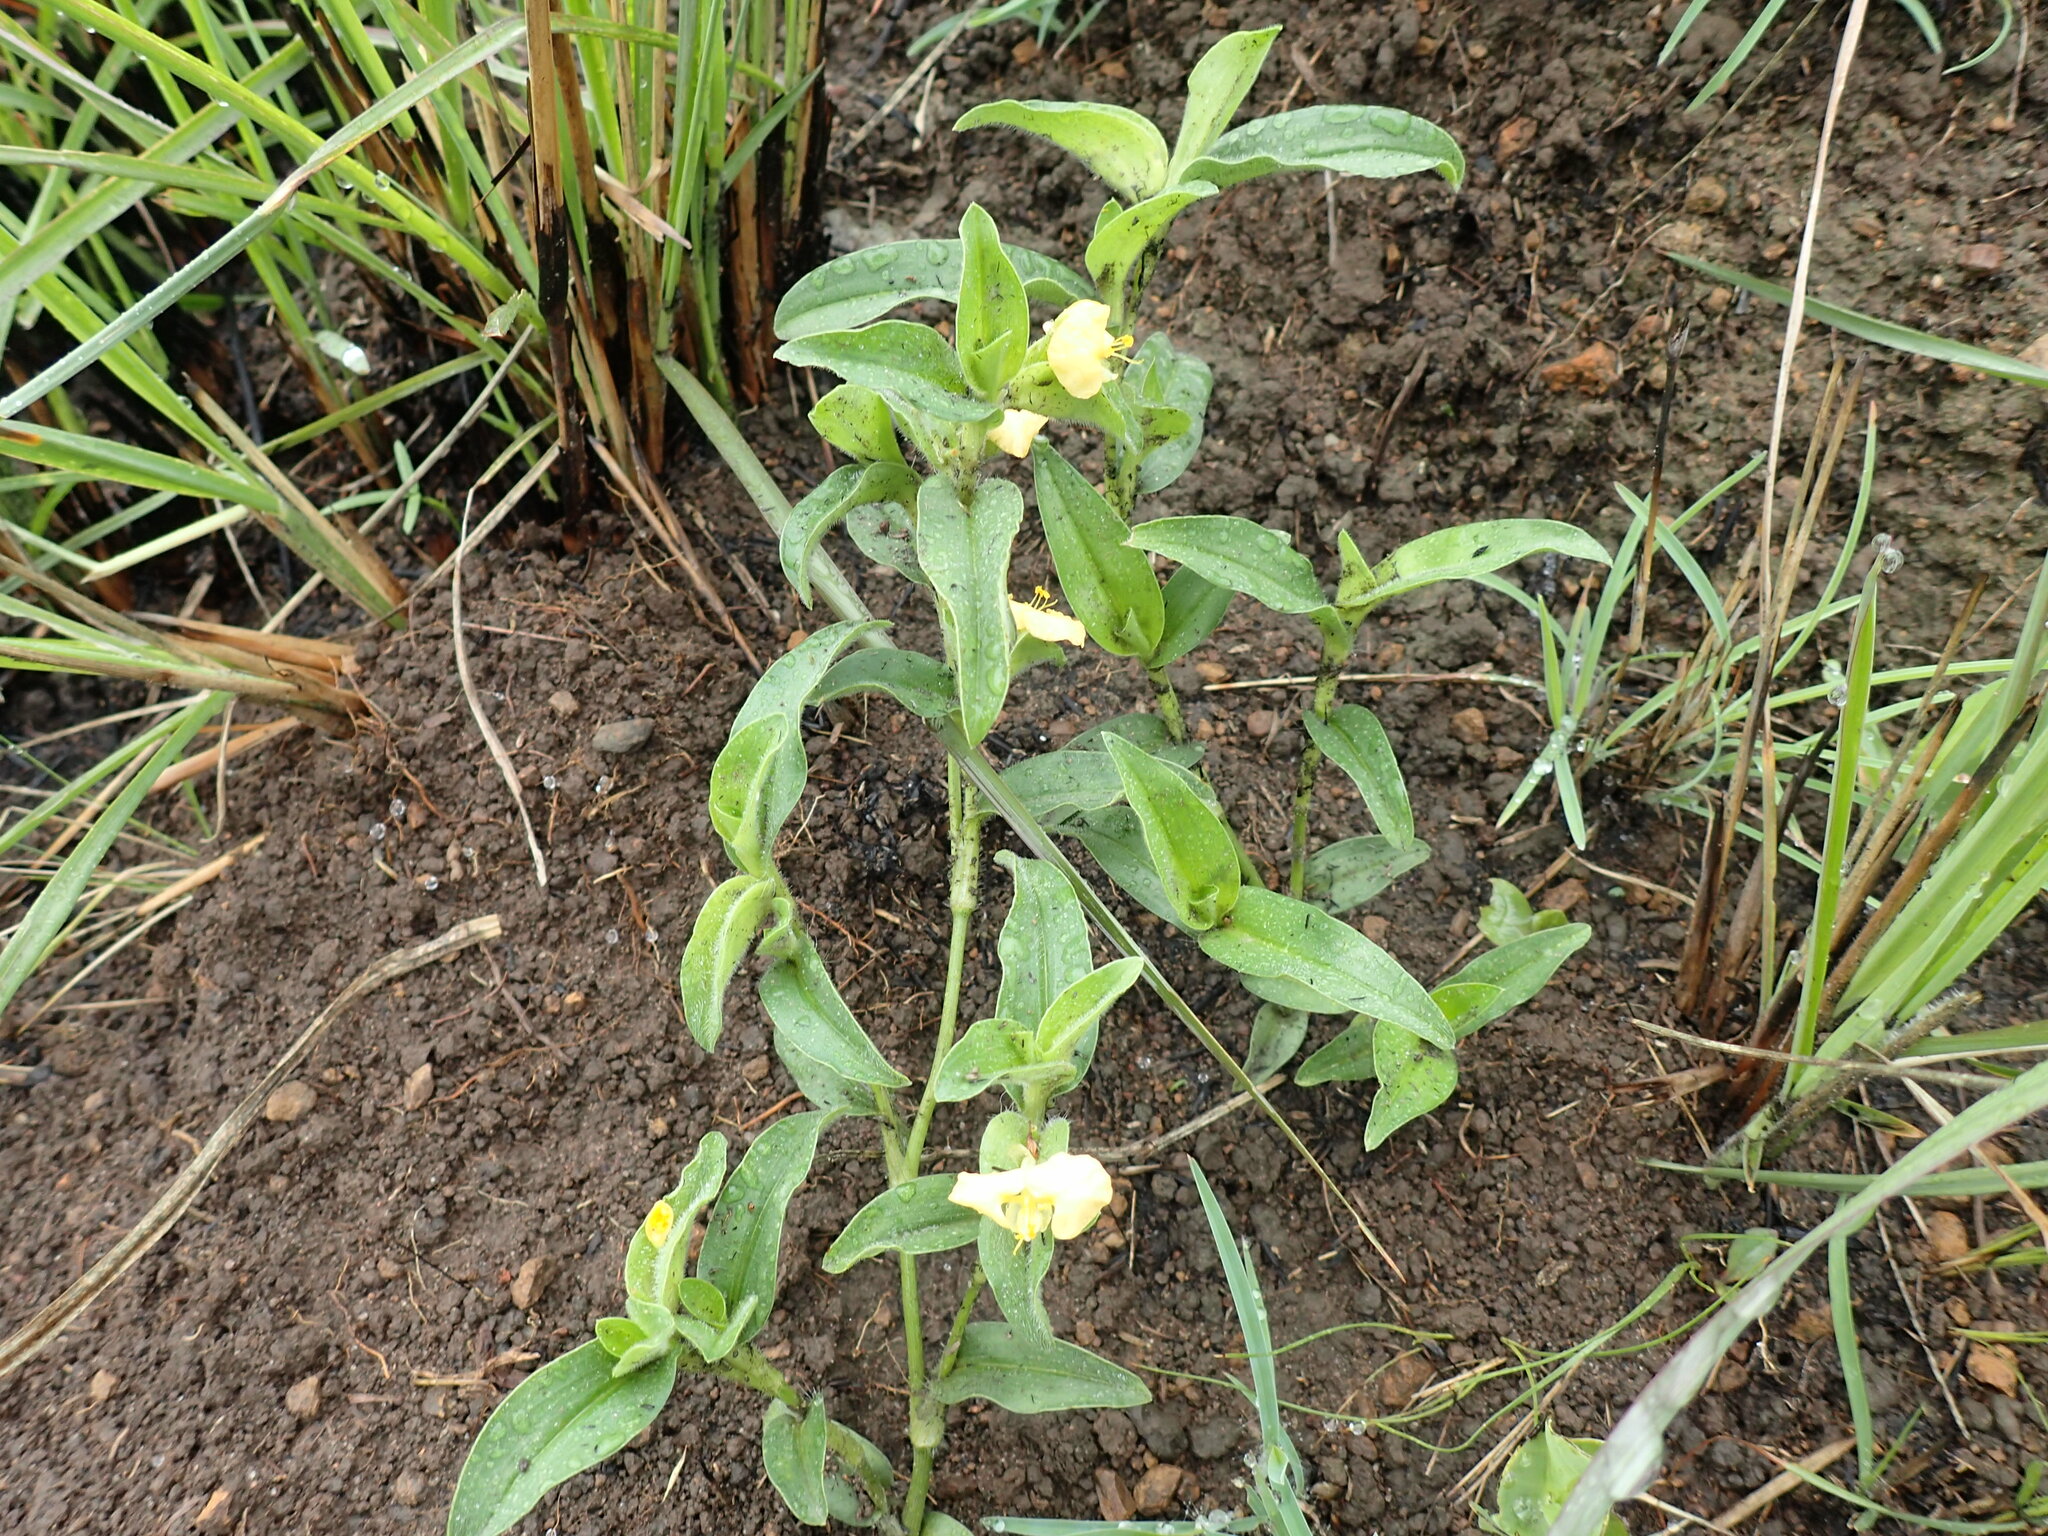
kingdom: Plantae
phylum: Tracheophyta
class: Liliopsida
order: Commelinales
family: Commelinaceae
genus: Commelina
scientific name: Commelina africana
